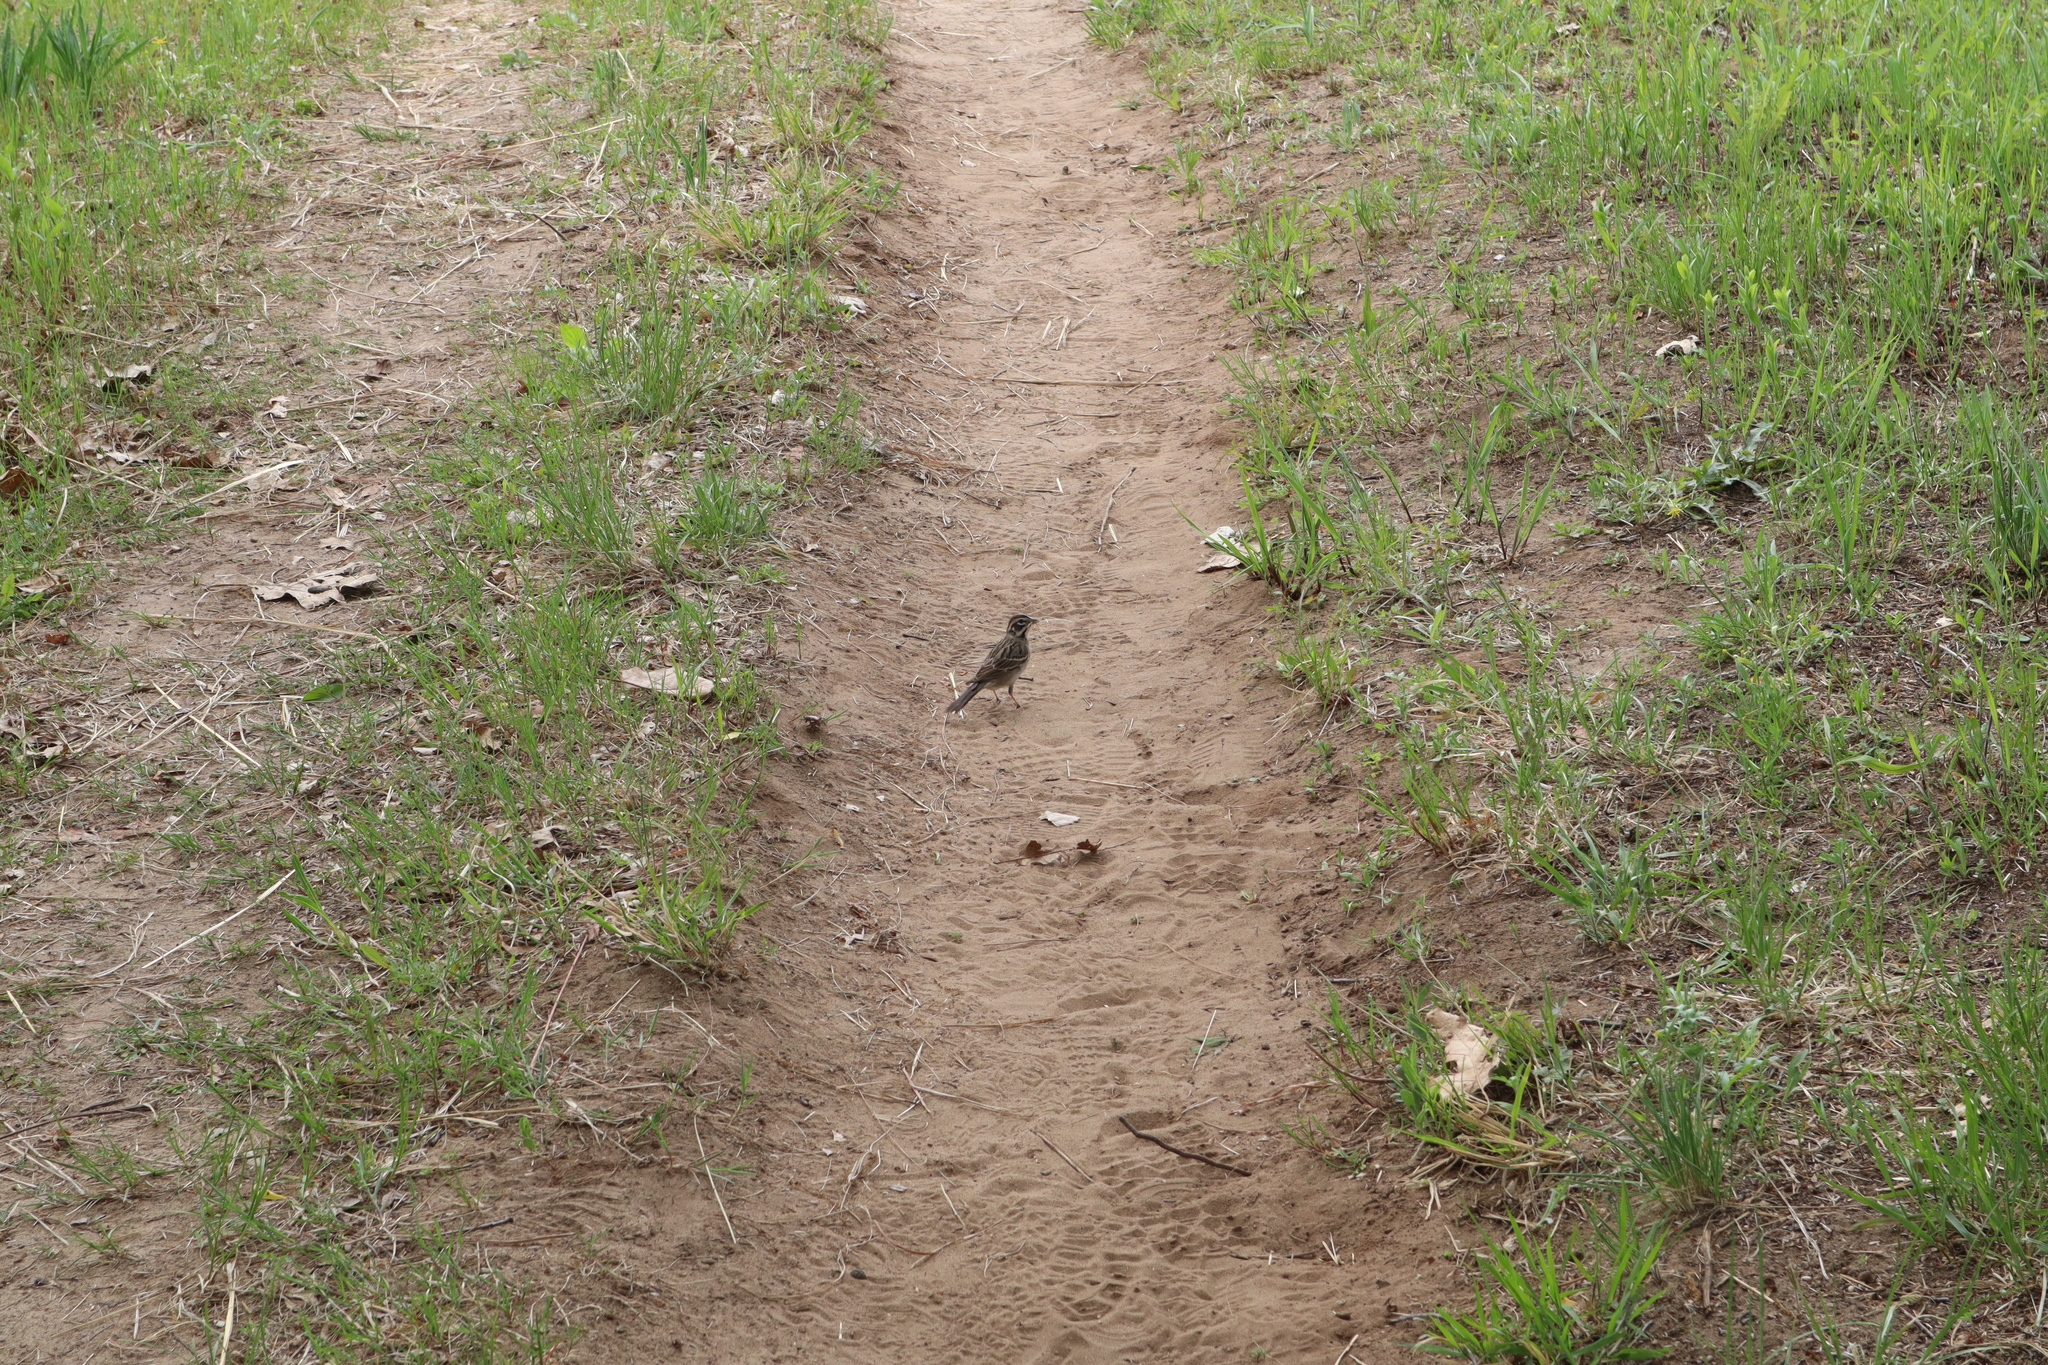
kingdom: Animalia
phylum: Chordata
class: Aves
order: Passeriformes
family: Passerellidae
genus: Chondestes
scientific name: Chondestes grammacus
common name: Lark sparrow
